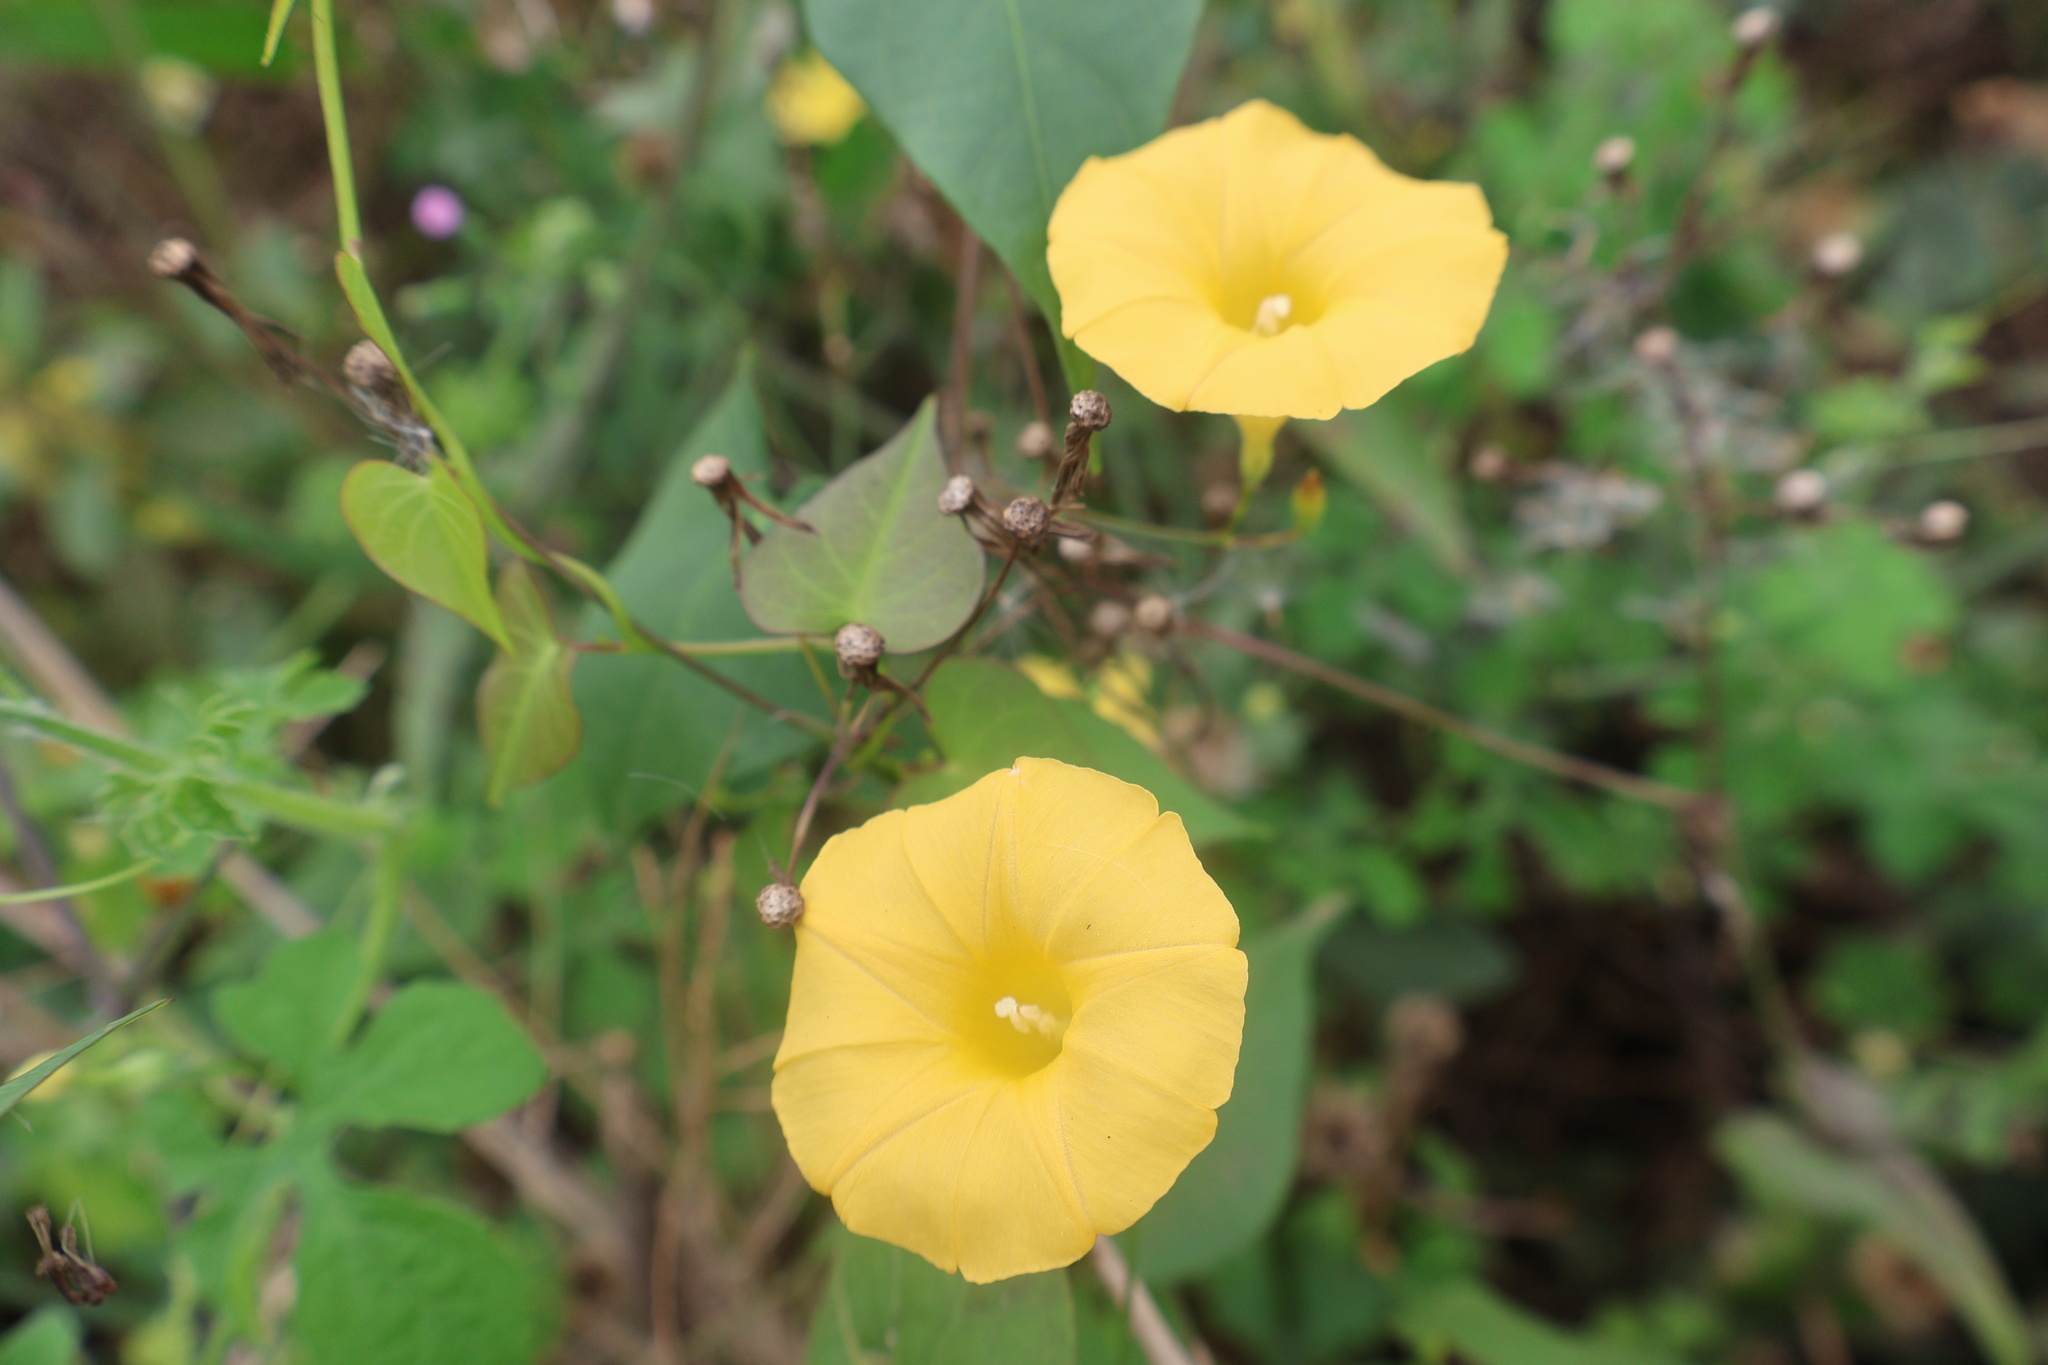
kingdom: Plantae
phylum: Tracheophyta
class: Magnoliopsida
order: Solanales
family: Convolvulaceae
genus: Ipomoea
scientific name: Ipomoea microsepala
